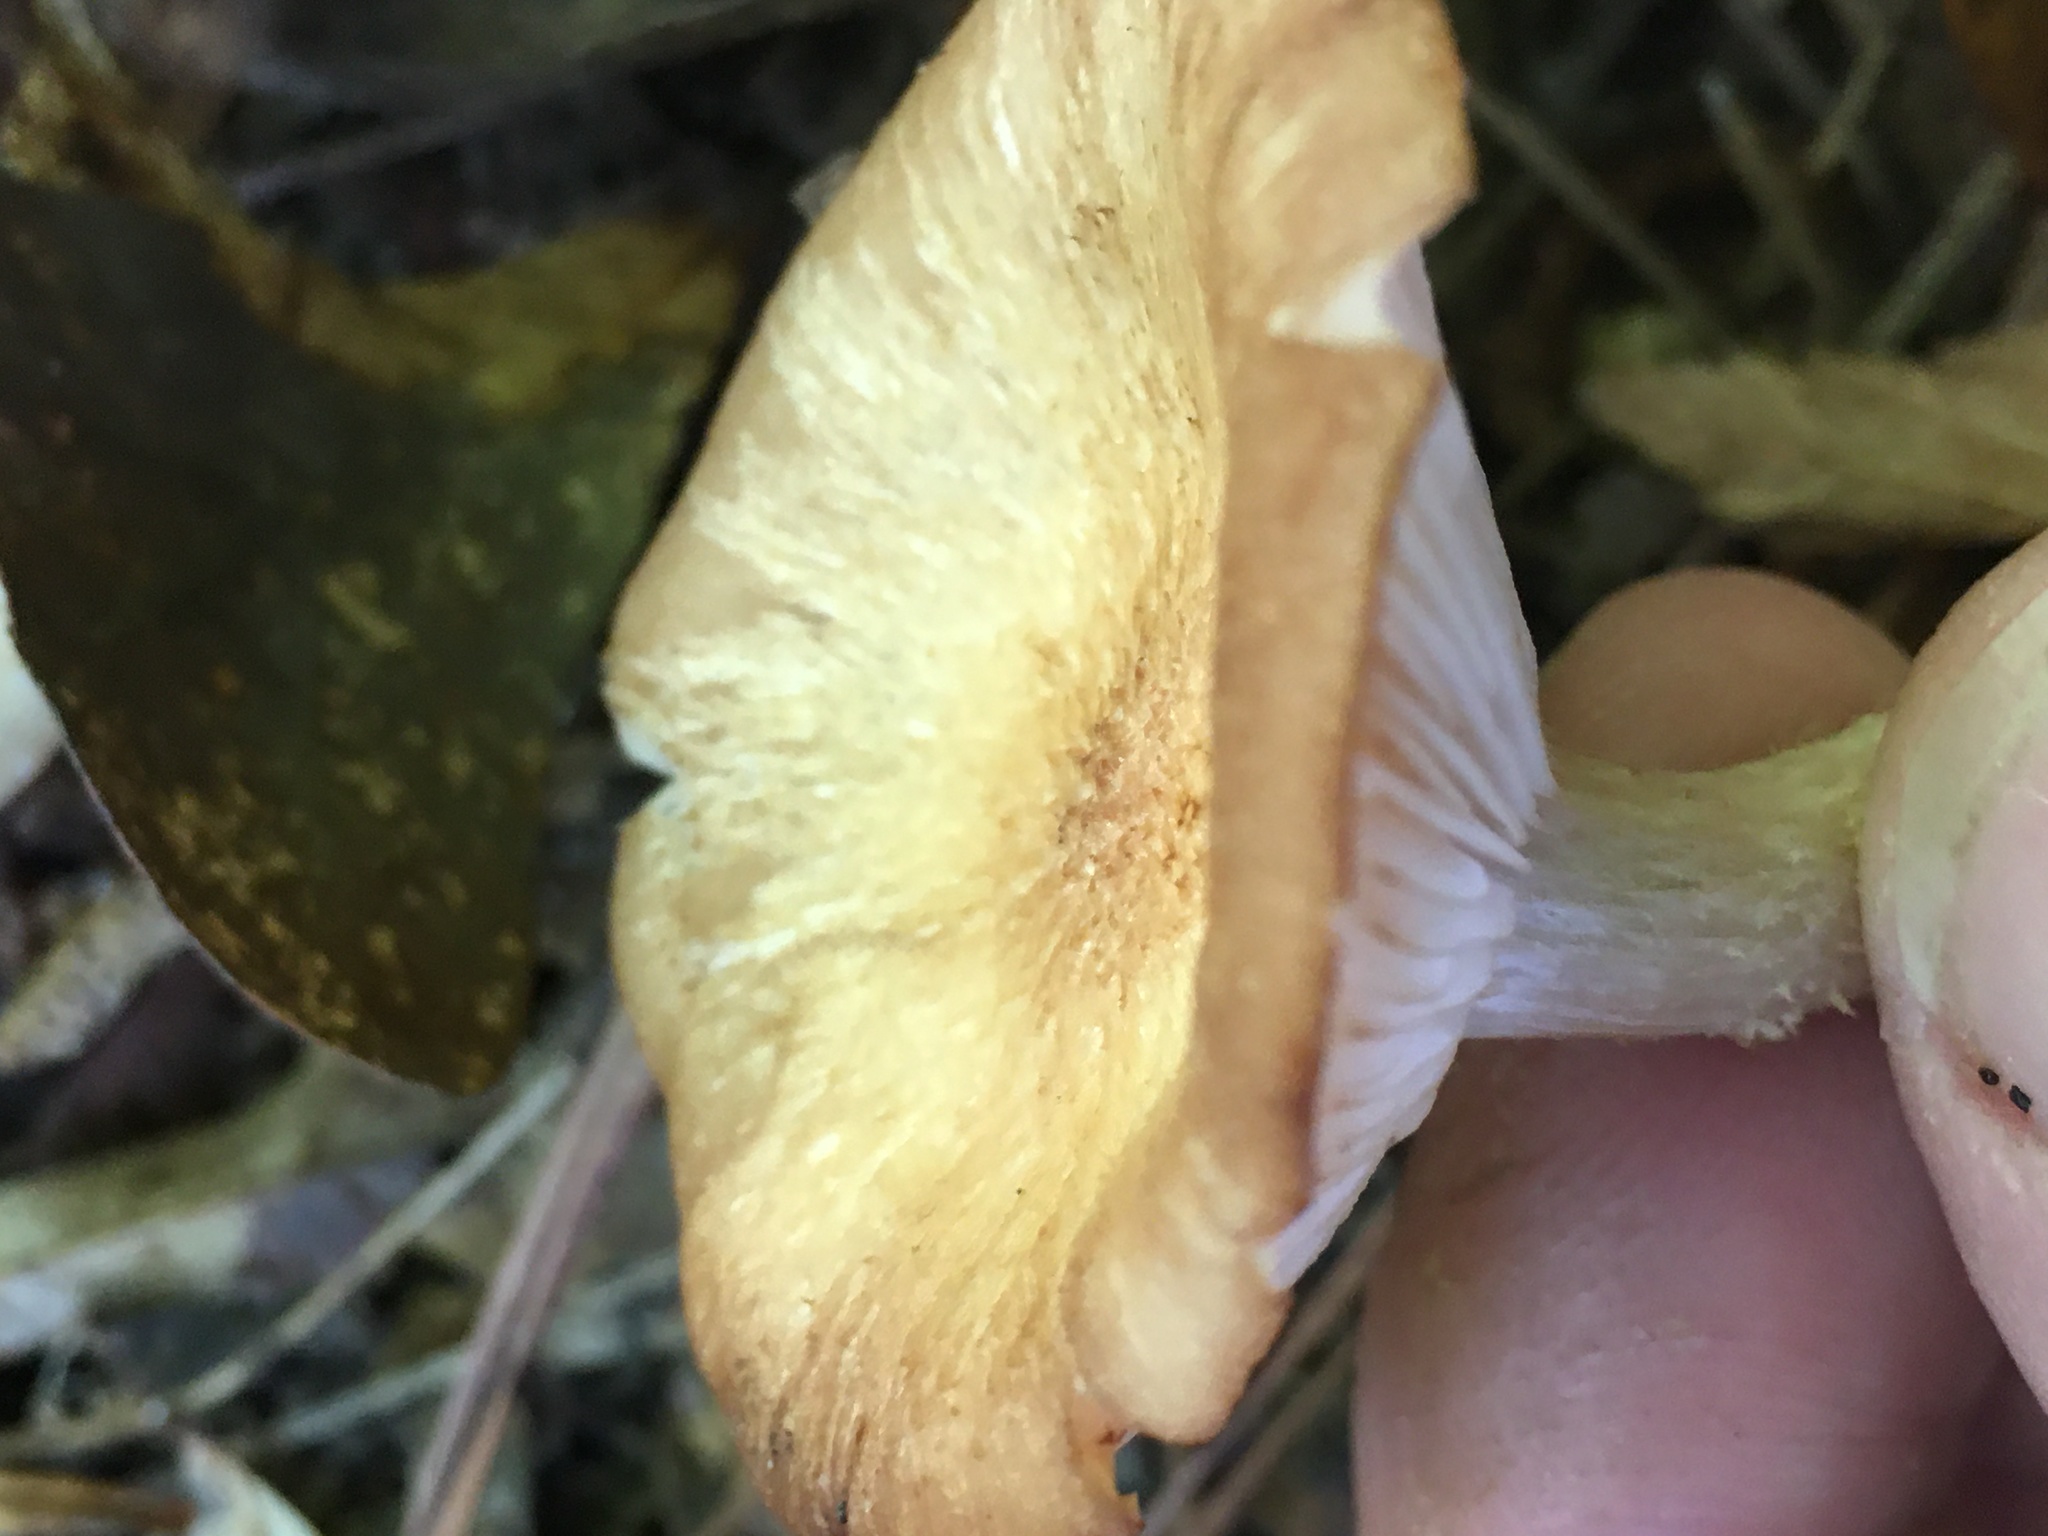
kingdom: Fungi
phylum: Basidiomycota
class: Agaricomycetes
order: Agaricales
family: Physalacriaceae
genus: Desarmillaria
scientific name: Desarmillaria caespitosa
